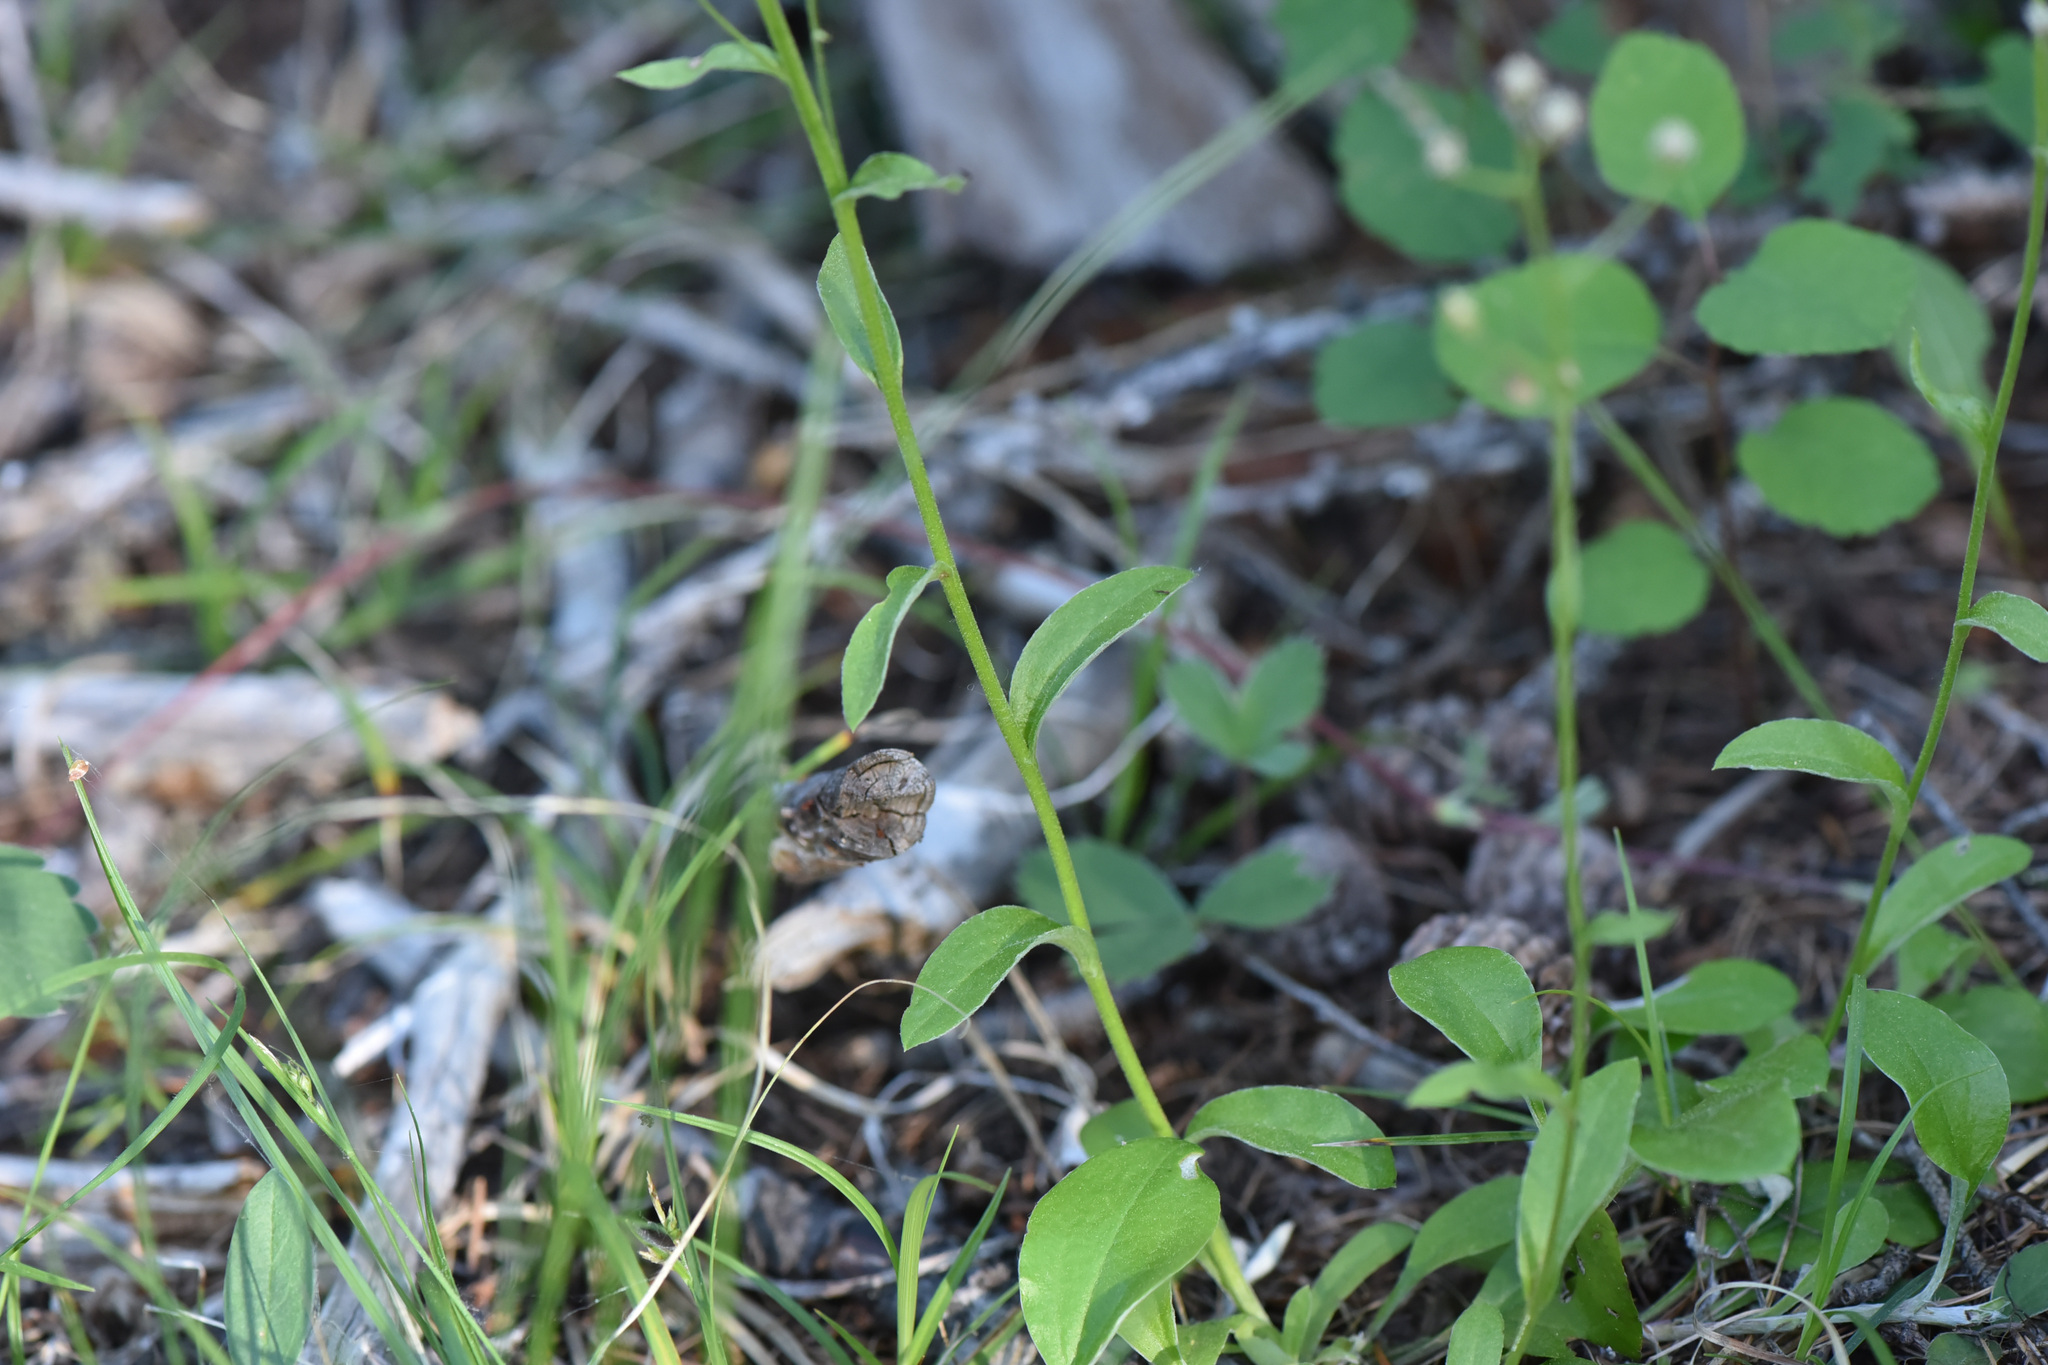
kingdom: Plantae
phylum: Tracheophyta
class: Magnoliopsida
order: Asterales
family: Asteraceae
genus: Antennaria
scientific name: Antennaria racemosa
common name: Racemose pussytoes
